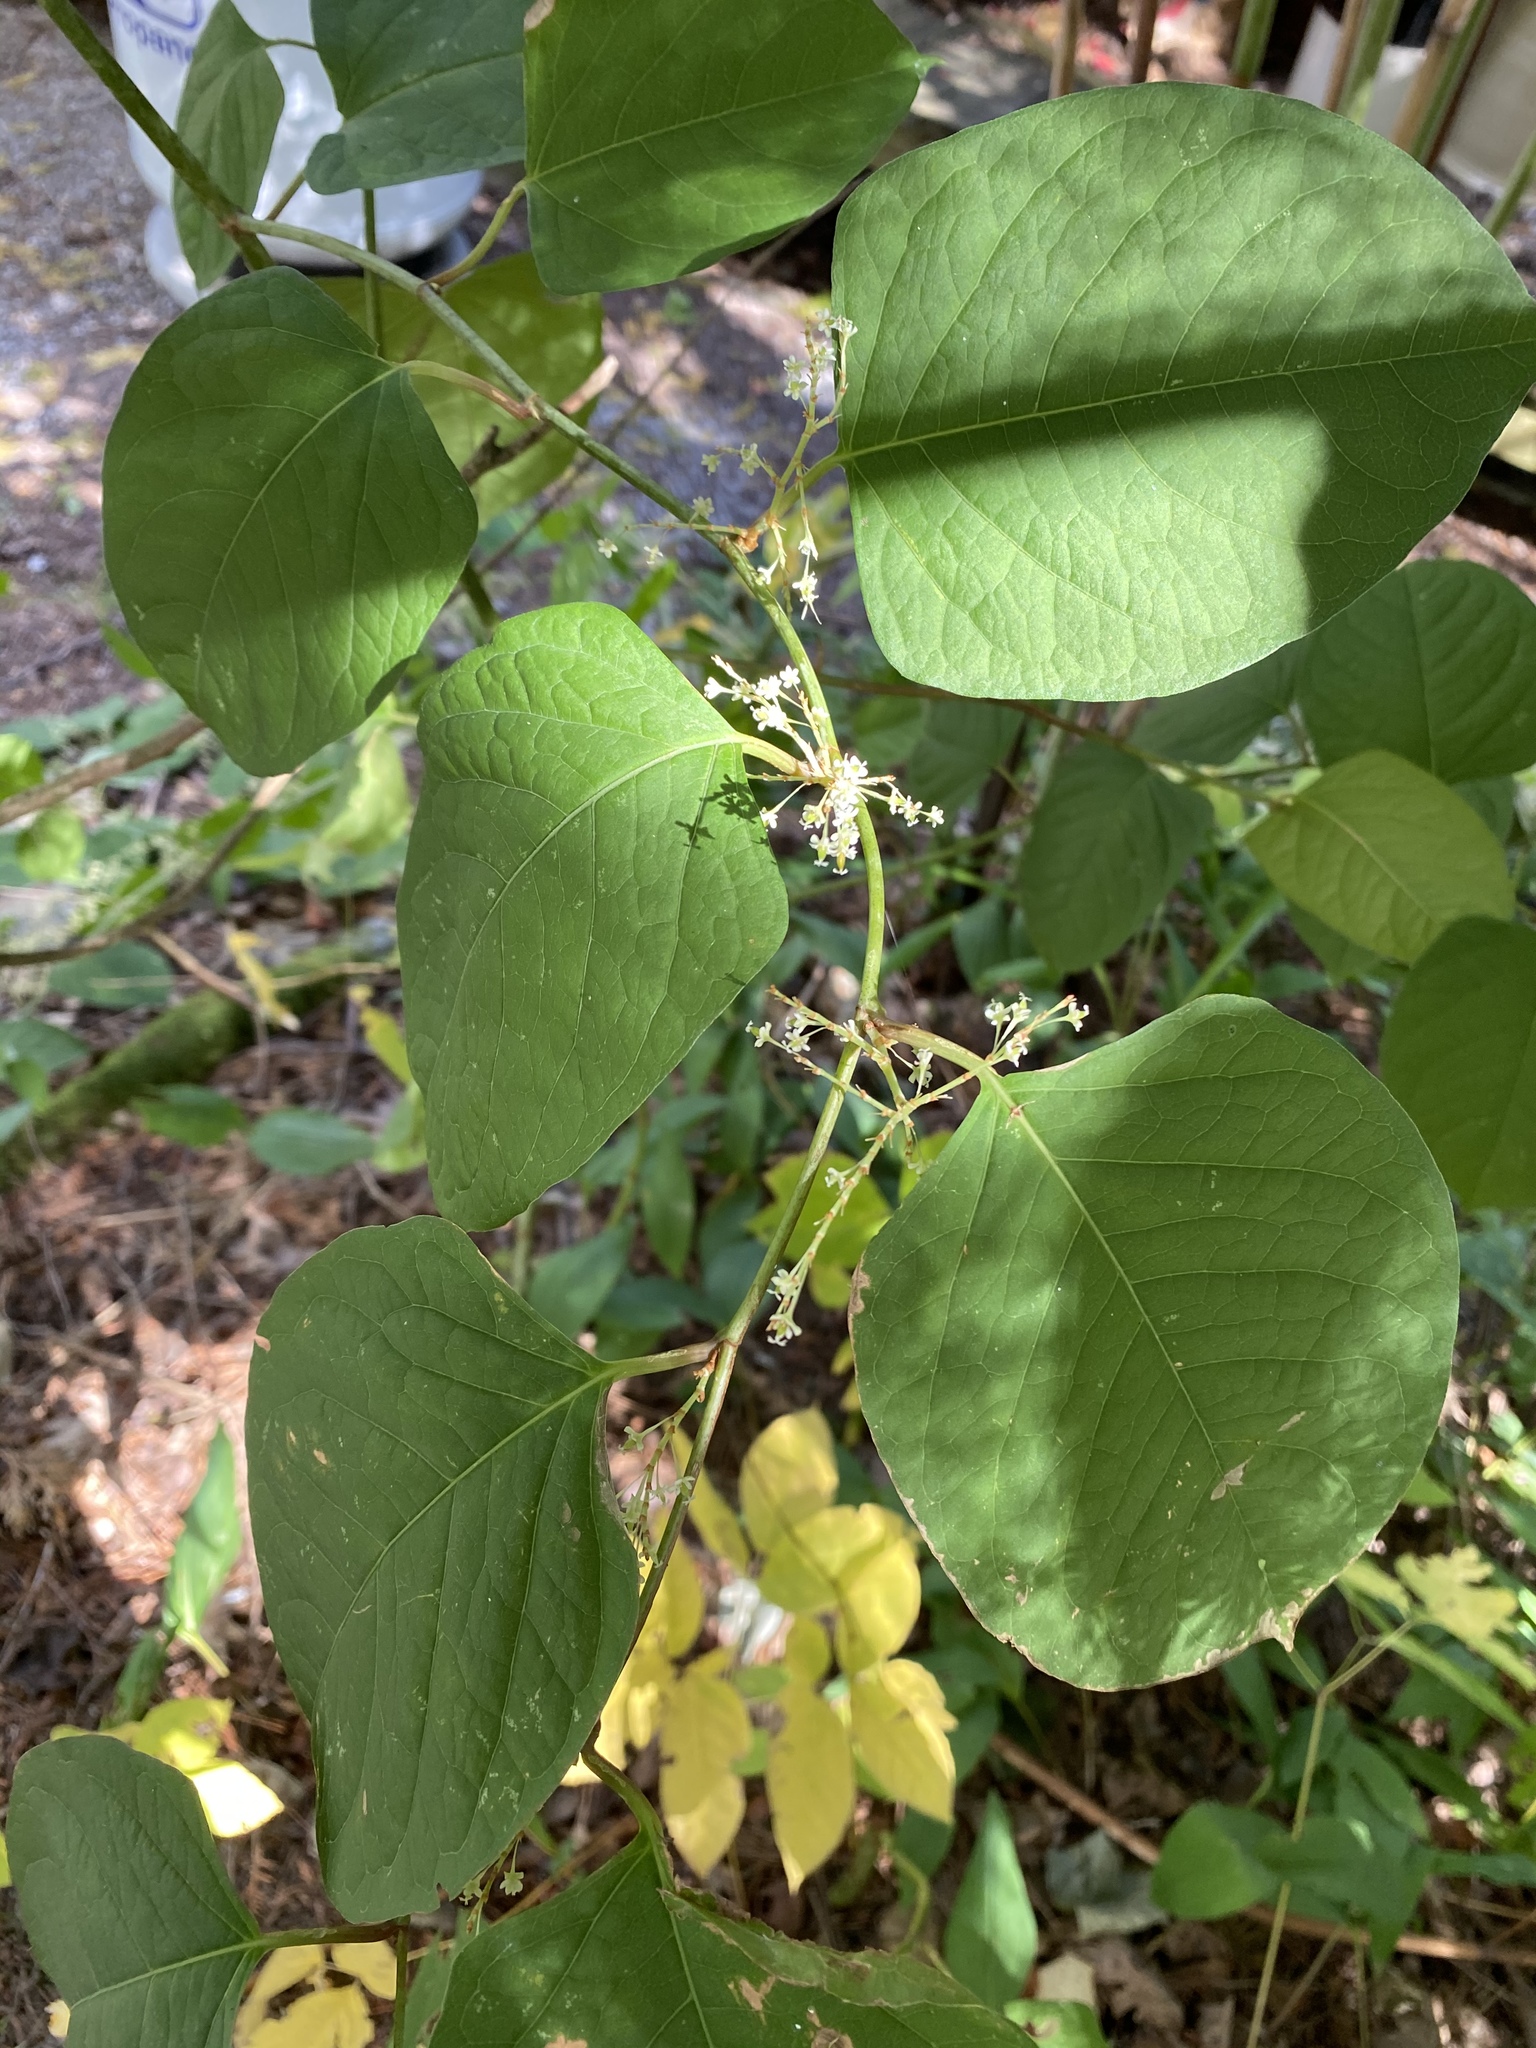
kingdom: Plantae
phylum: Tracheophyta
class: Magnoliopsida
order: Caryophyllales
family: Polygonaceae
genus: Reynoutria
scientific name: Reynoutria japonica
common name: Japanese knotweed
